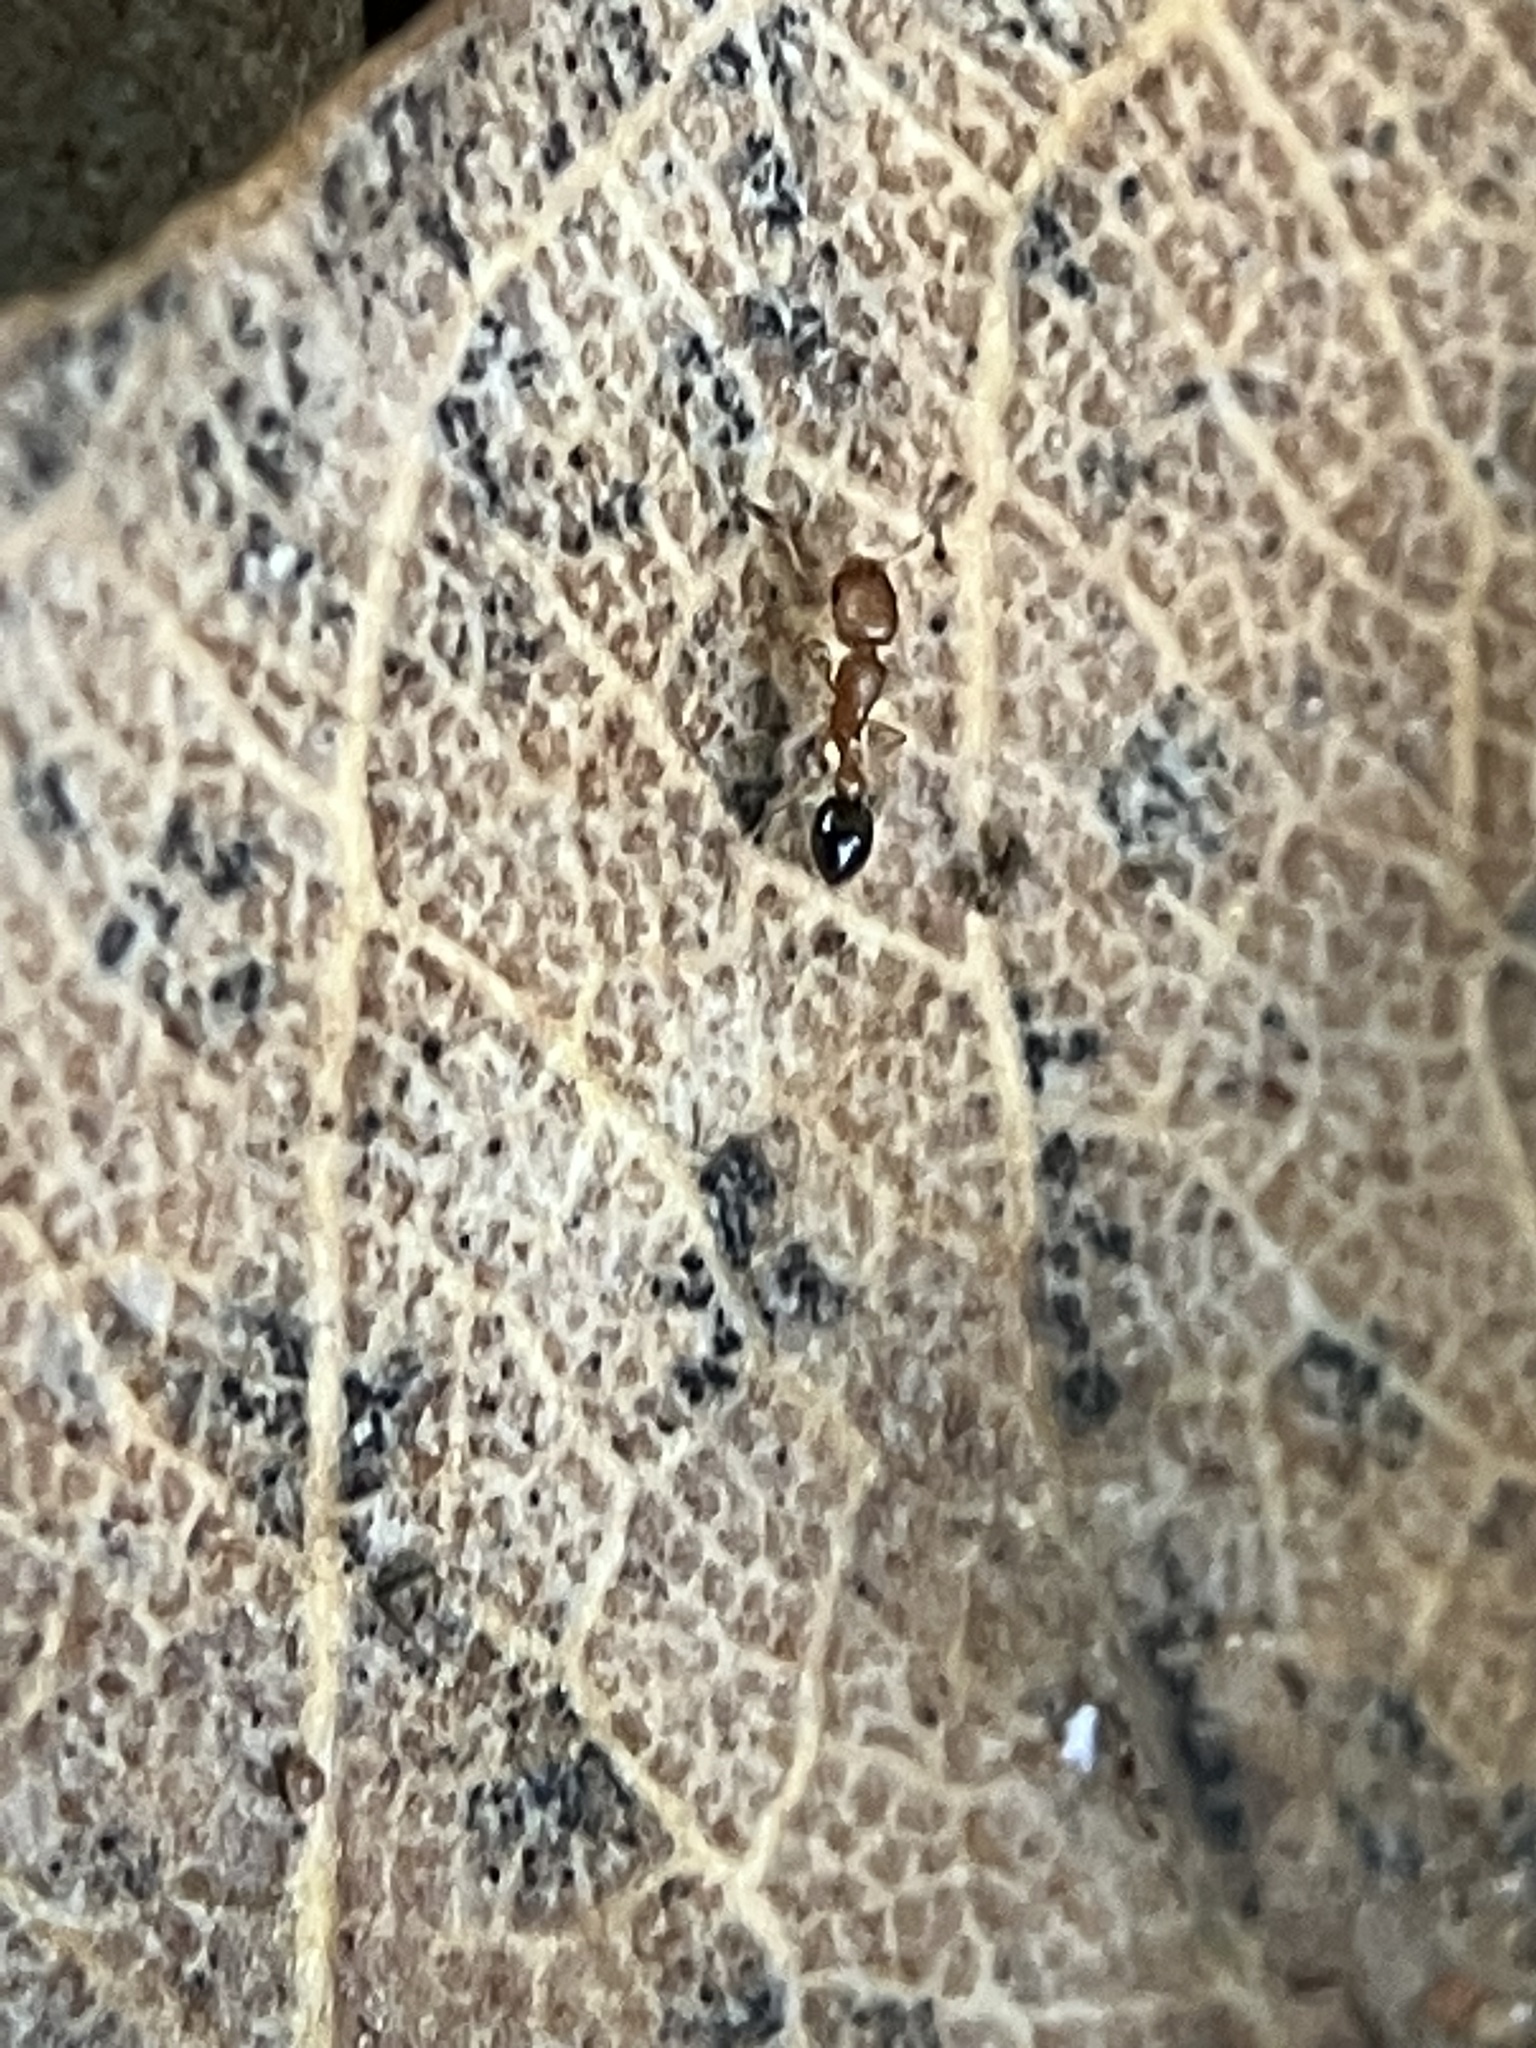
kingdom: Animalia
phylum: Arthropoda
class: Insecta
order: Hymenoptera
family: Formicidae
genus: Cardiocondyla
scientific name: Cardiocondyla minutior
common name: Ant
